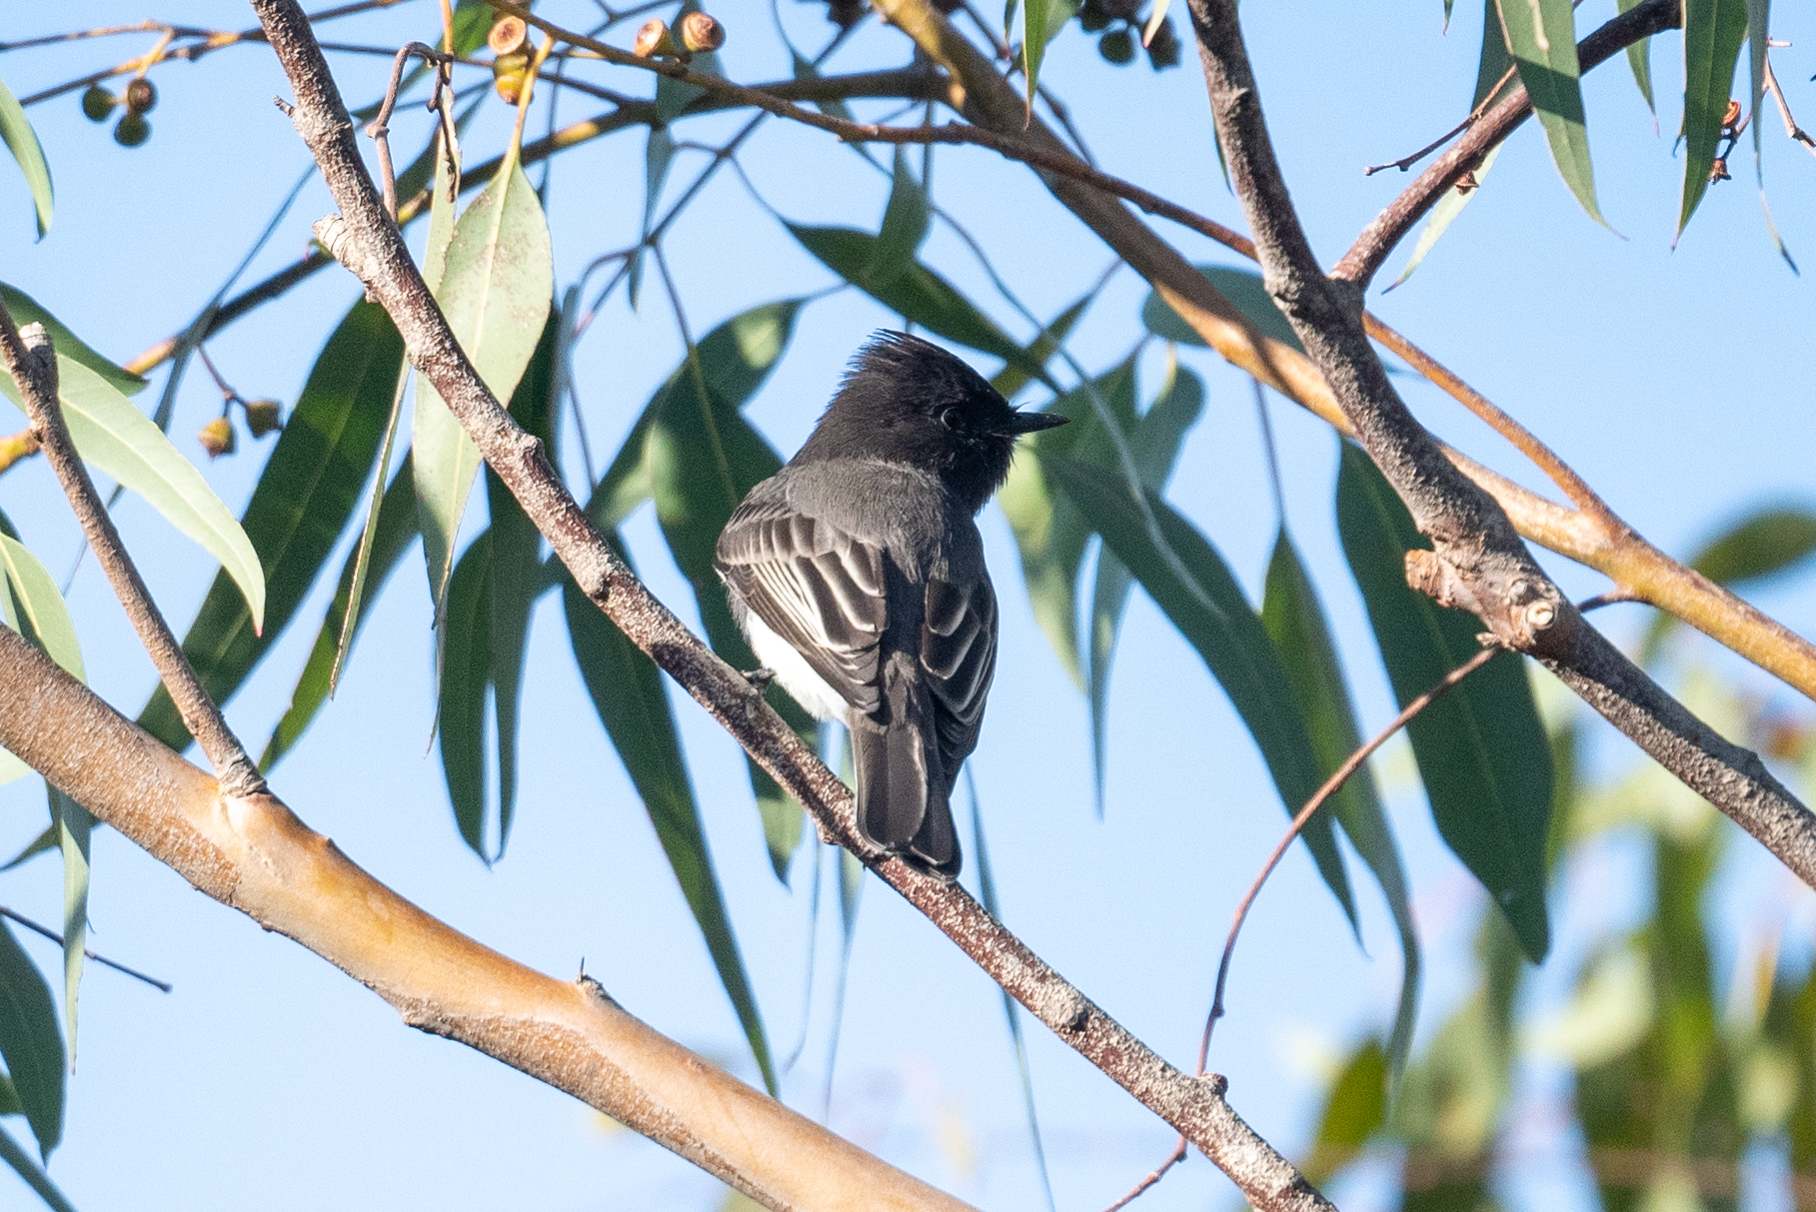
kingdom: Animalia
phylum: Chordata
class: Aves
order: Passeriformes
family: Tyrannidae
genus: Sayornis
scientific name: Sayornis nigricans
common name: Black phoebe
